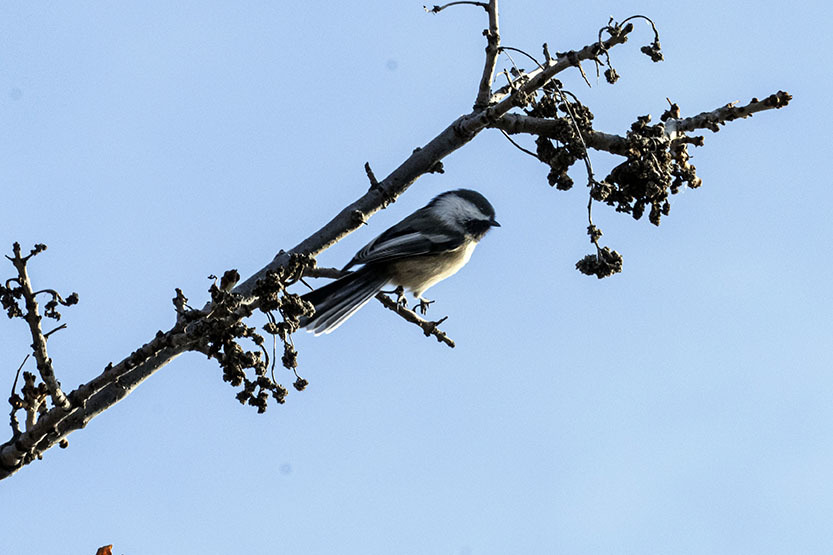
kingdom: Animalia
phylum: Chordata
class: Aves
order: Passeriformes
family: Paridae
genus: Poecile
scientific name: Poecile atricapillus
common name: Black-capped chickadee
